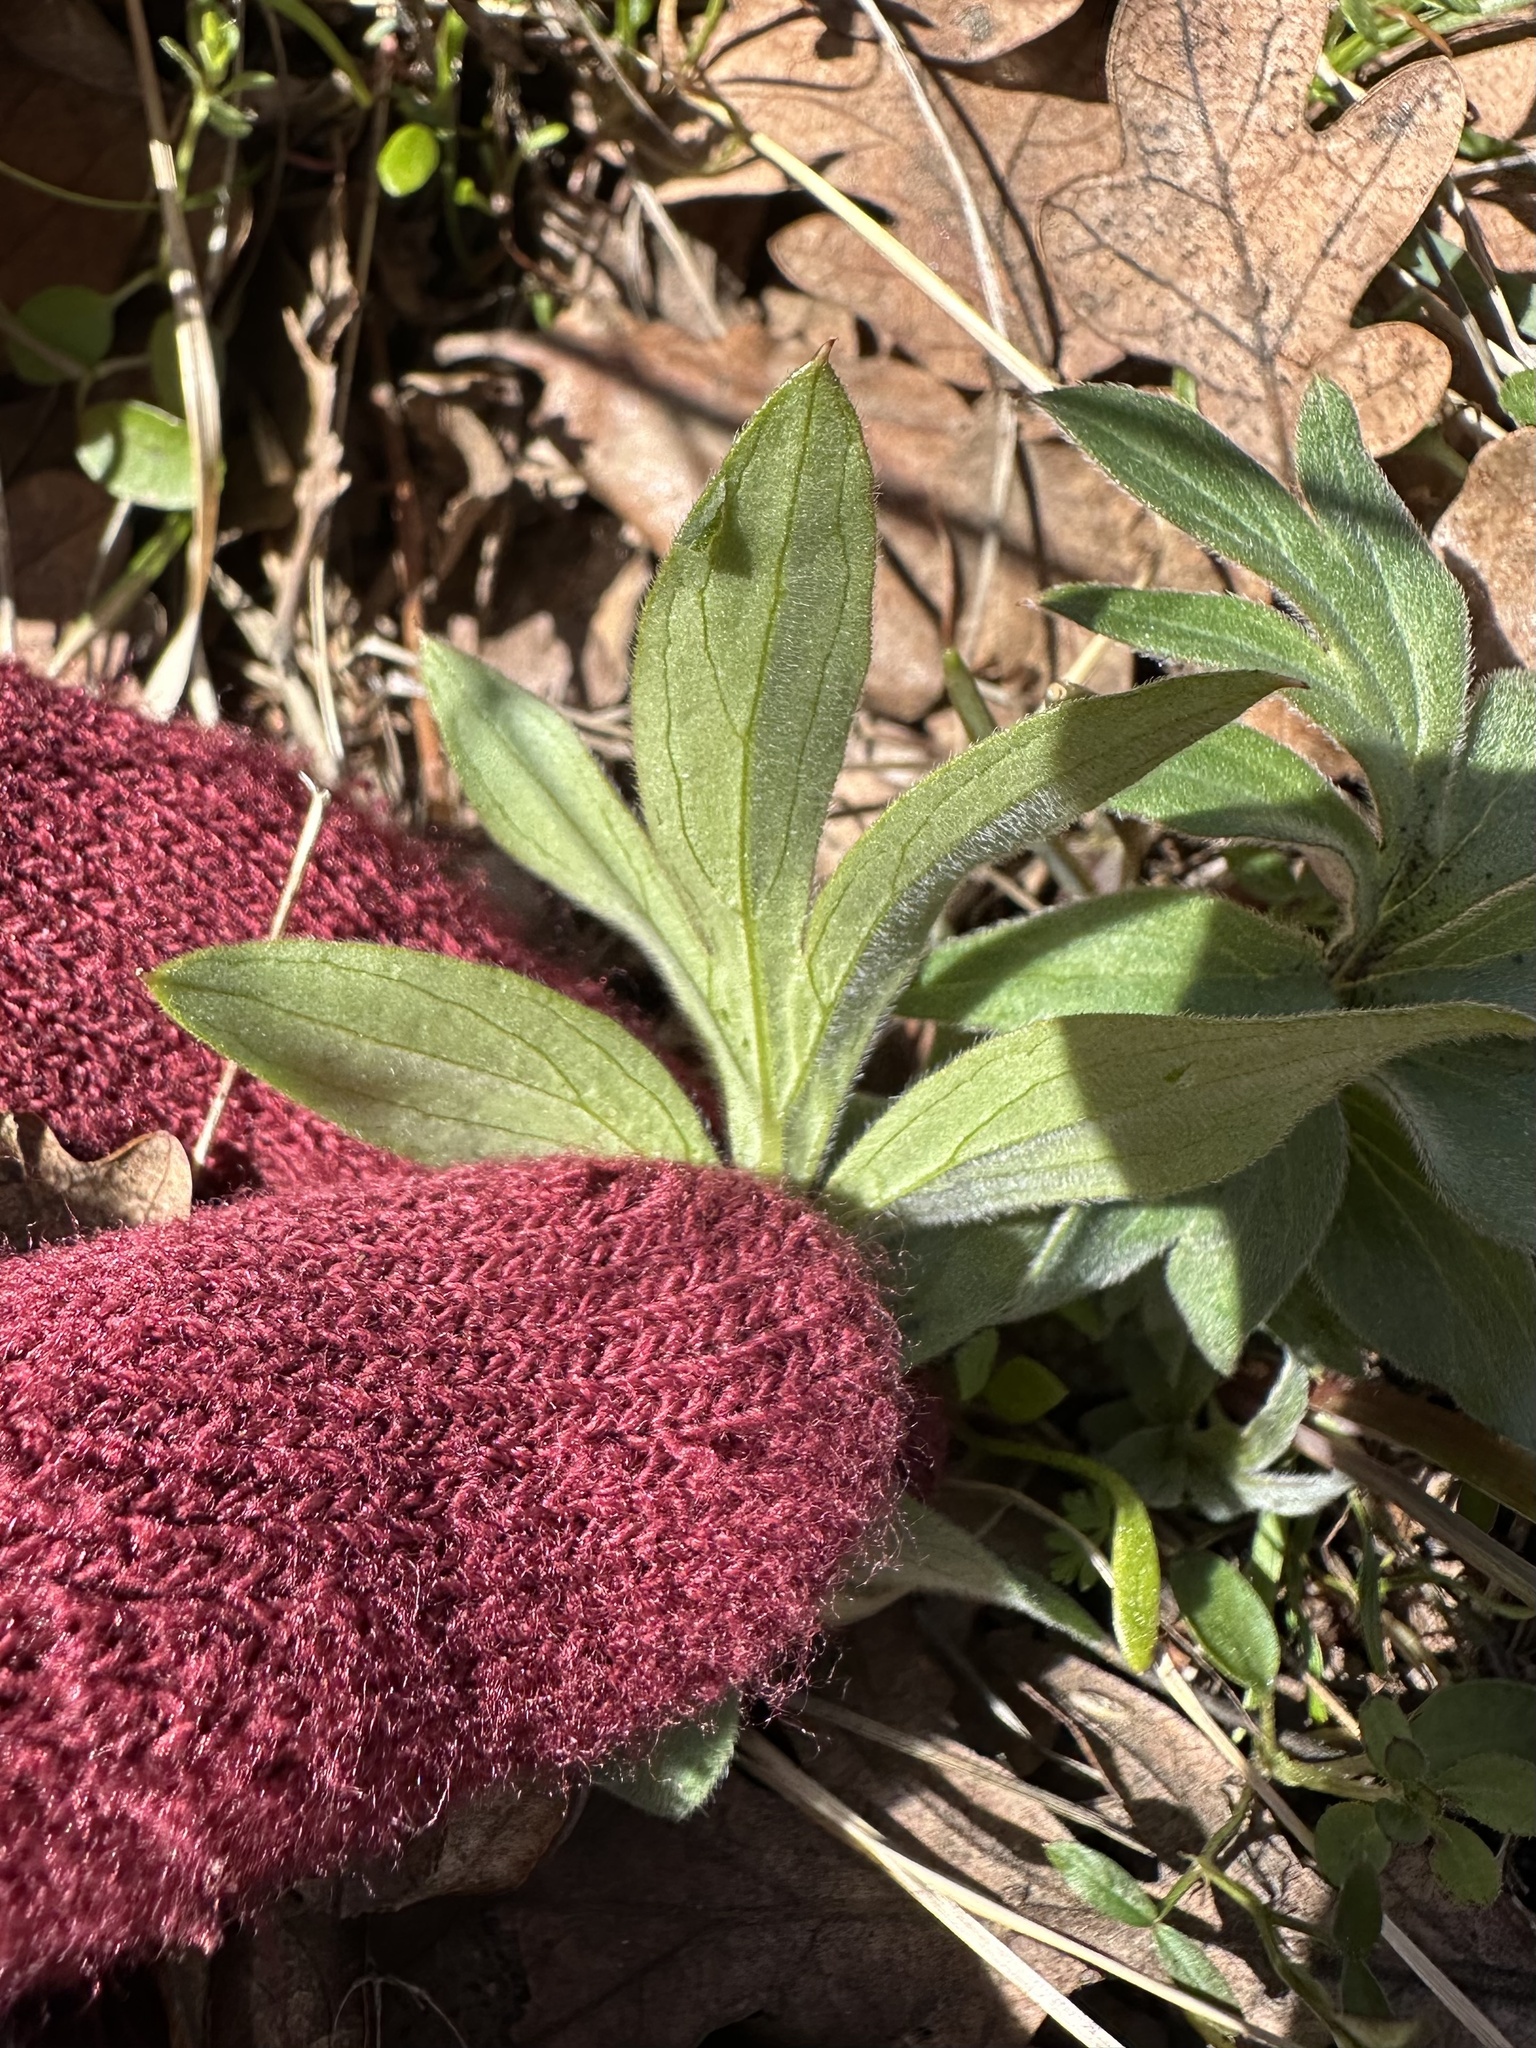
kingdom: Plantae
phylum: Tracheophyta
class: Magnoliopsida
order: Boraginales
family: Hydrophyllaceae
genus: Hydrophyllum
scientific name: Hydrophyllum capitatum
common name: Woollen-breeches
